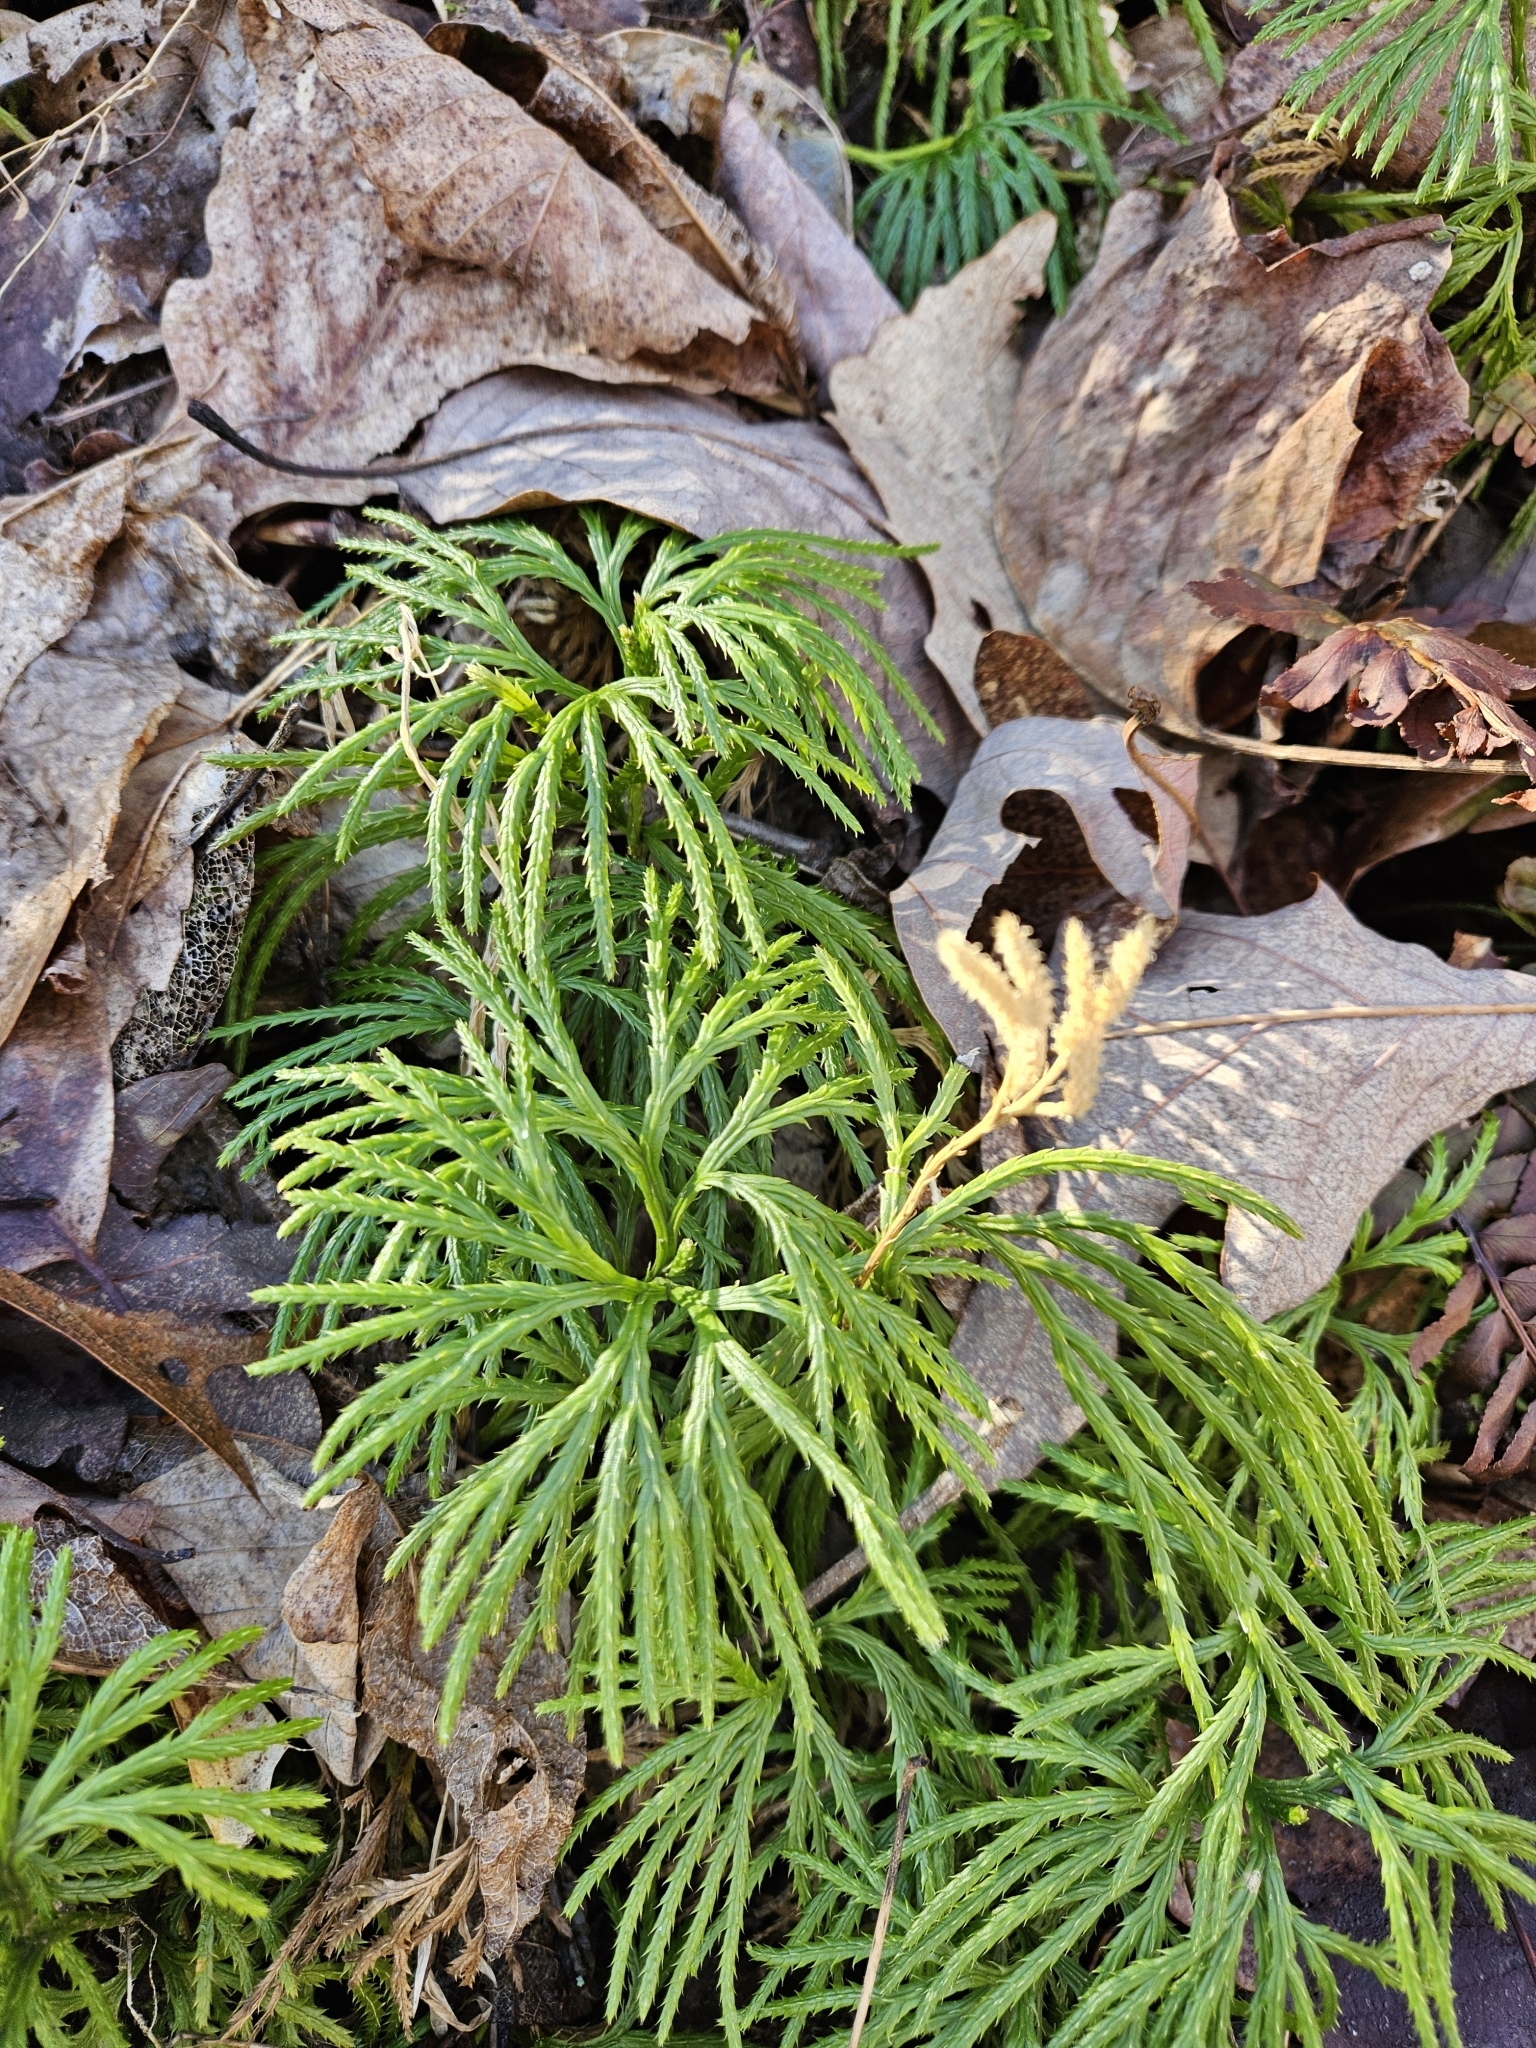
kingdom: Plantae
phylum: Tracheophyta
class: Lycopodiopsida
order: Lycopodiales
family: Lycopodiaceae
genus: Diphasiastrum
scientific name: Diphasiastrum digitatum
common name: Southern running-pine
